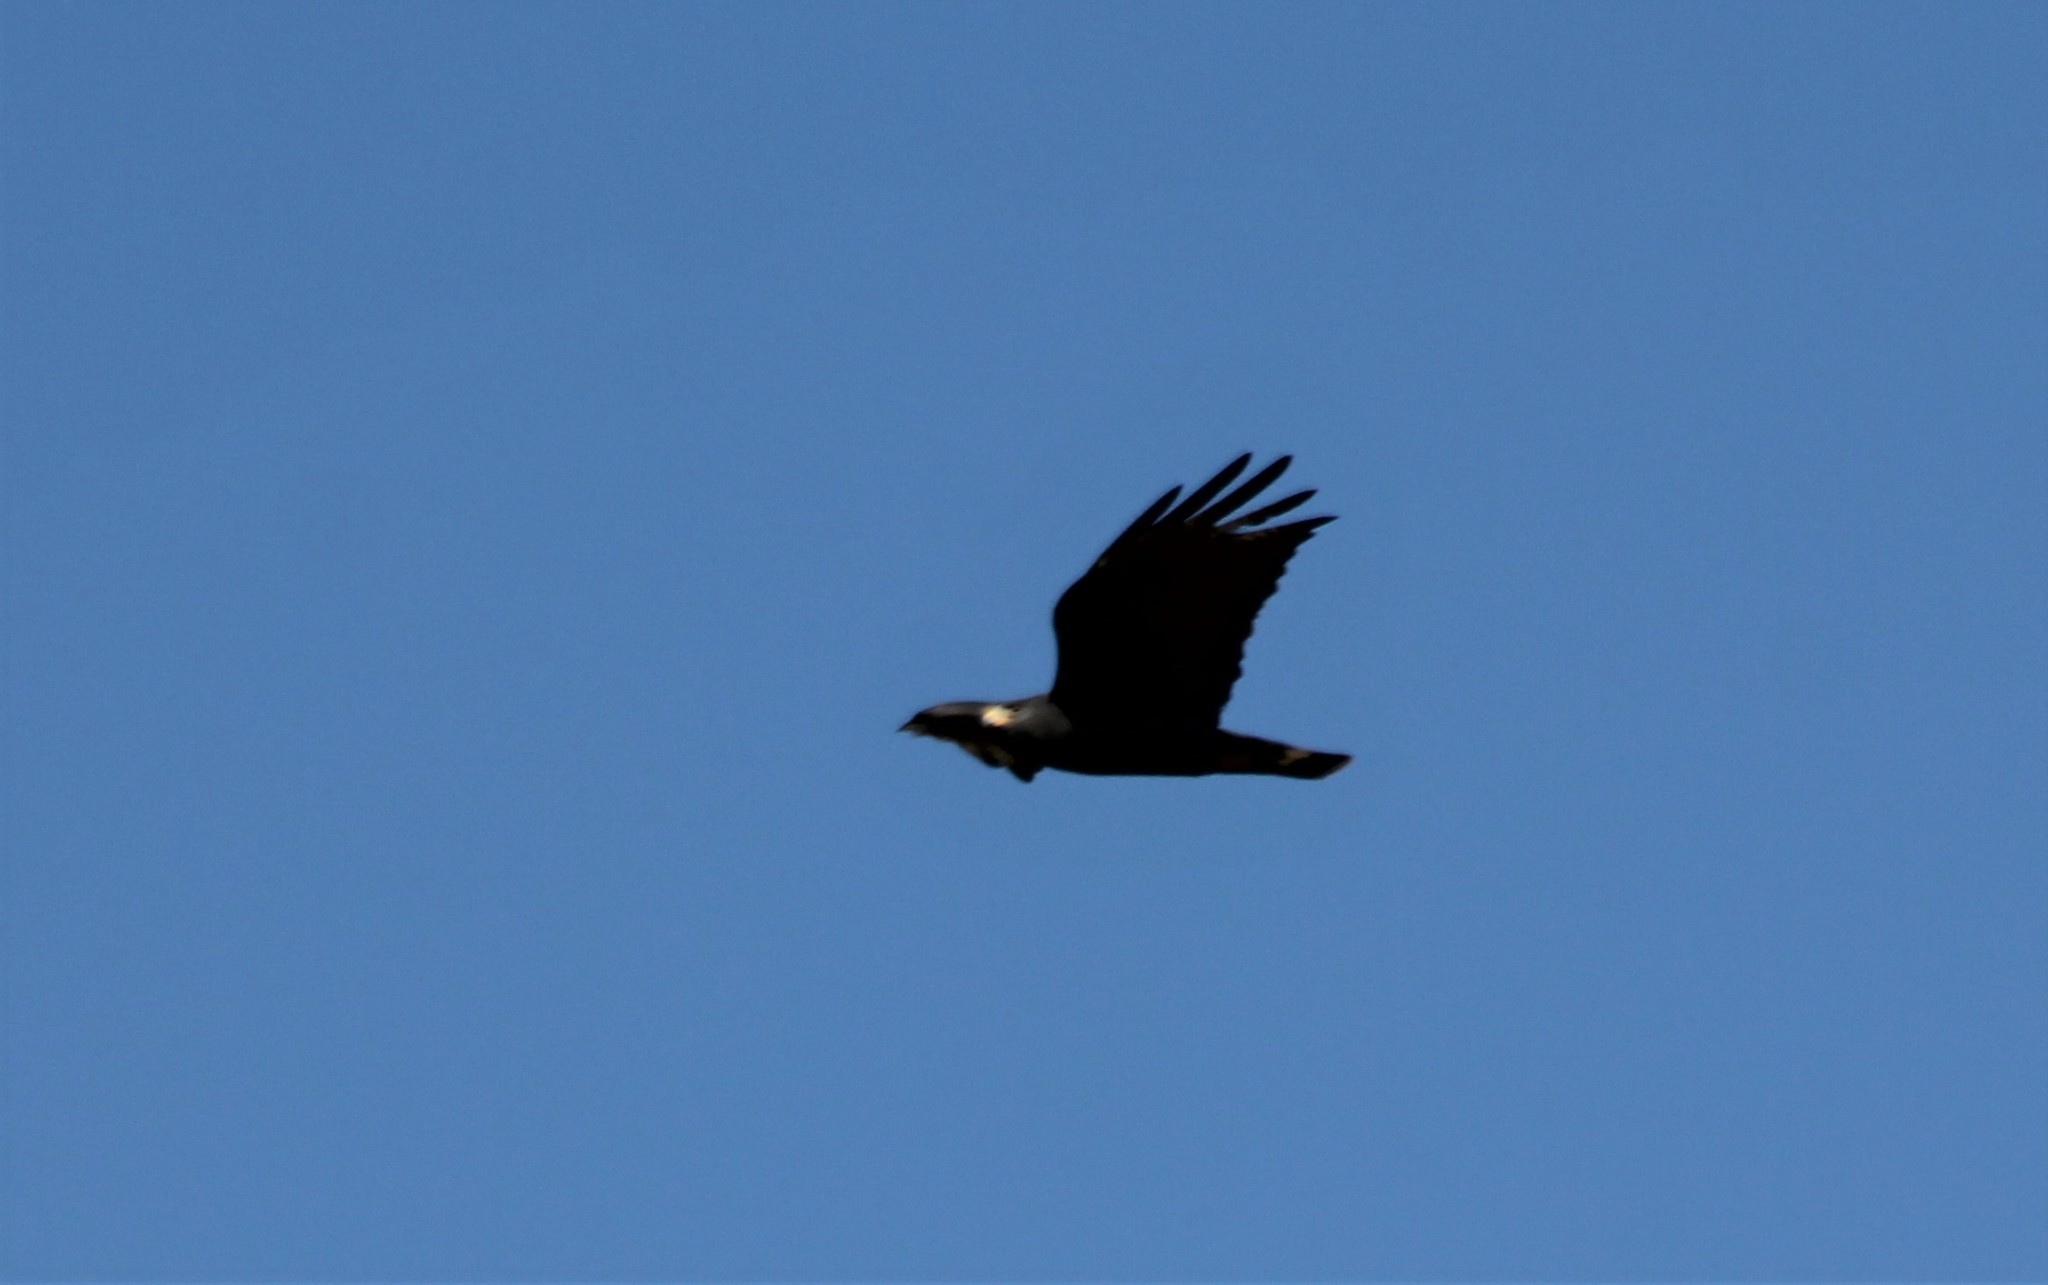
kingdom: Animalia
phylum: Chordata
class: Aves
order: Accipitriformes
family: Accipitridae
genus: Buteo
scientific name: Buteo albonotatus
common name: Zone-tailed hawk
